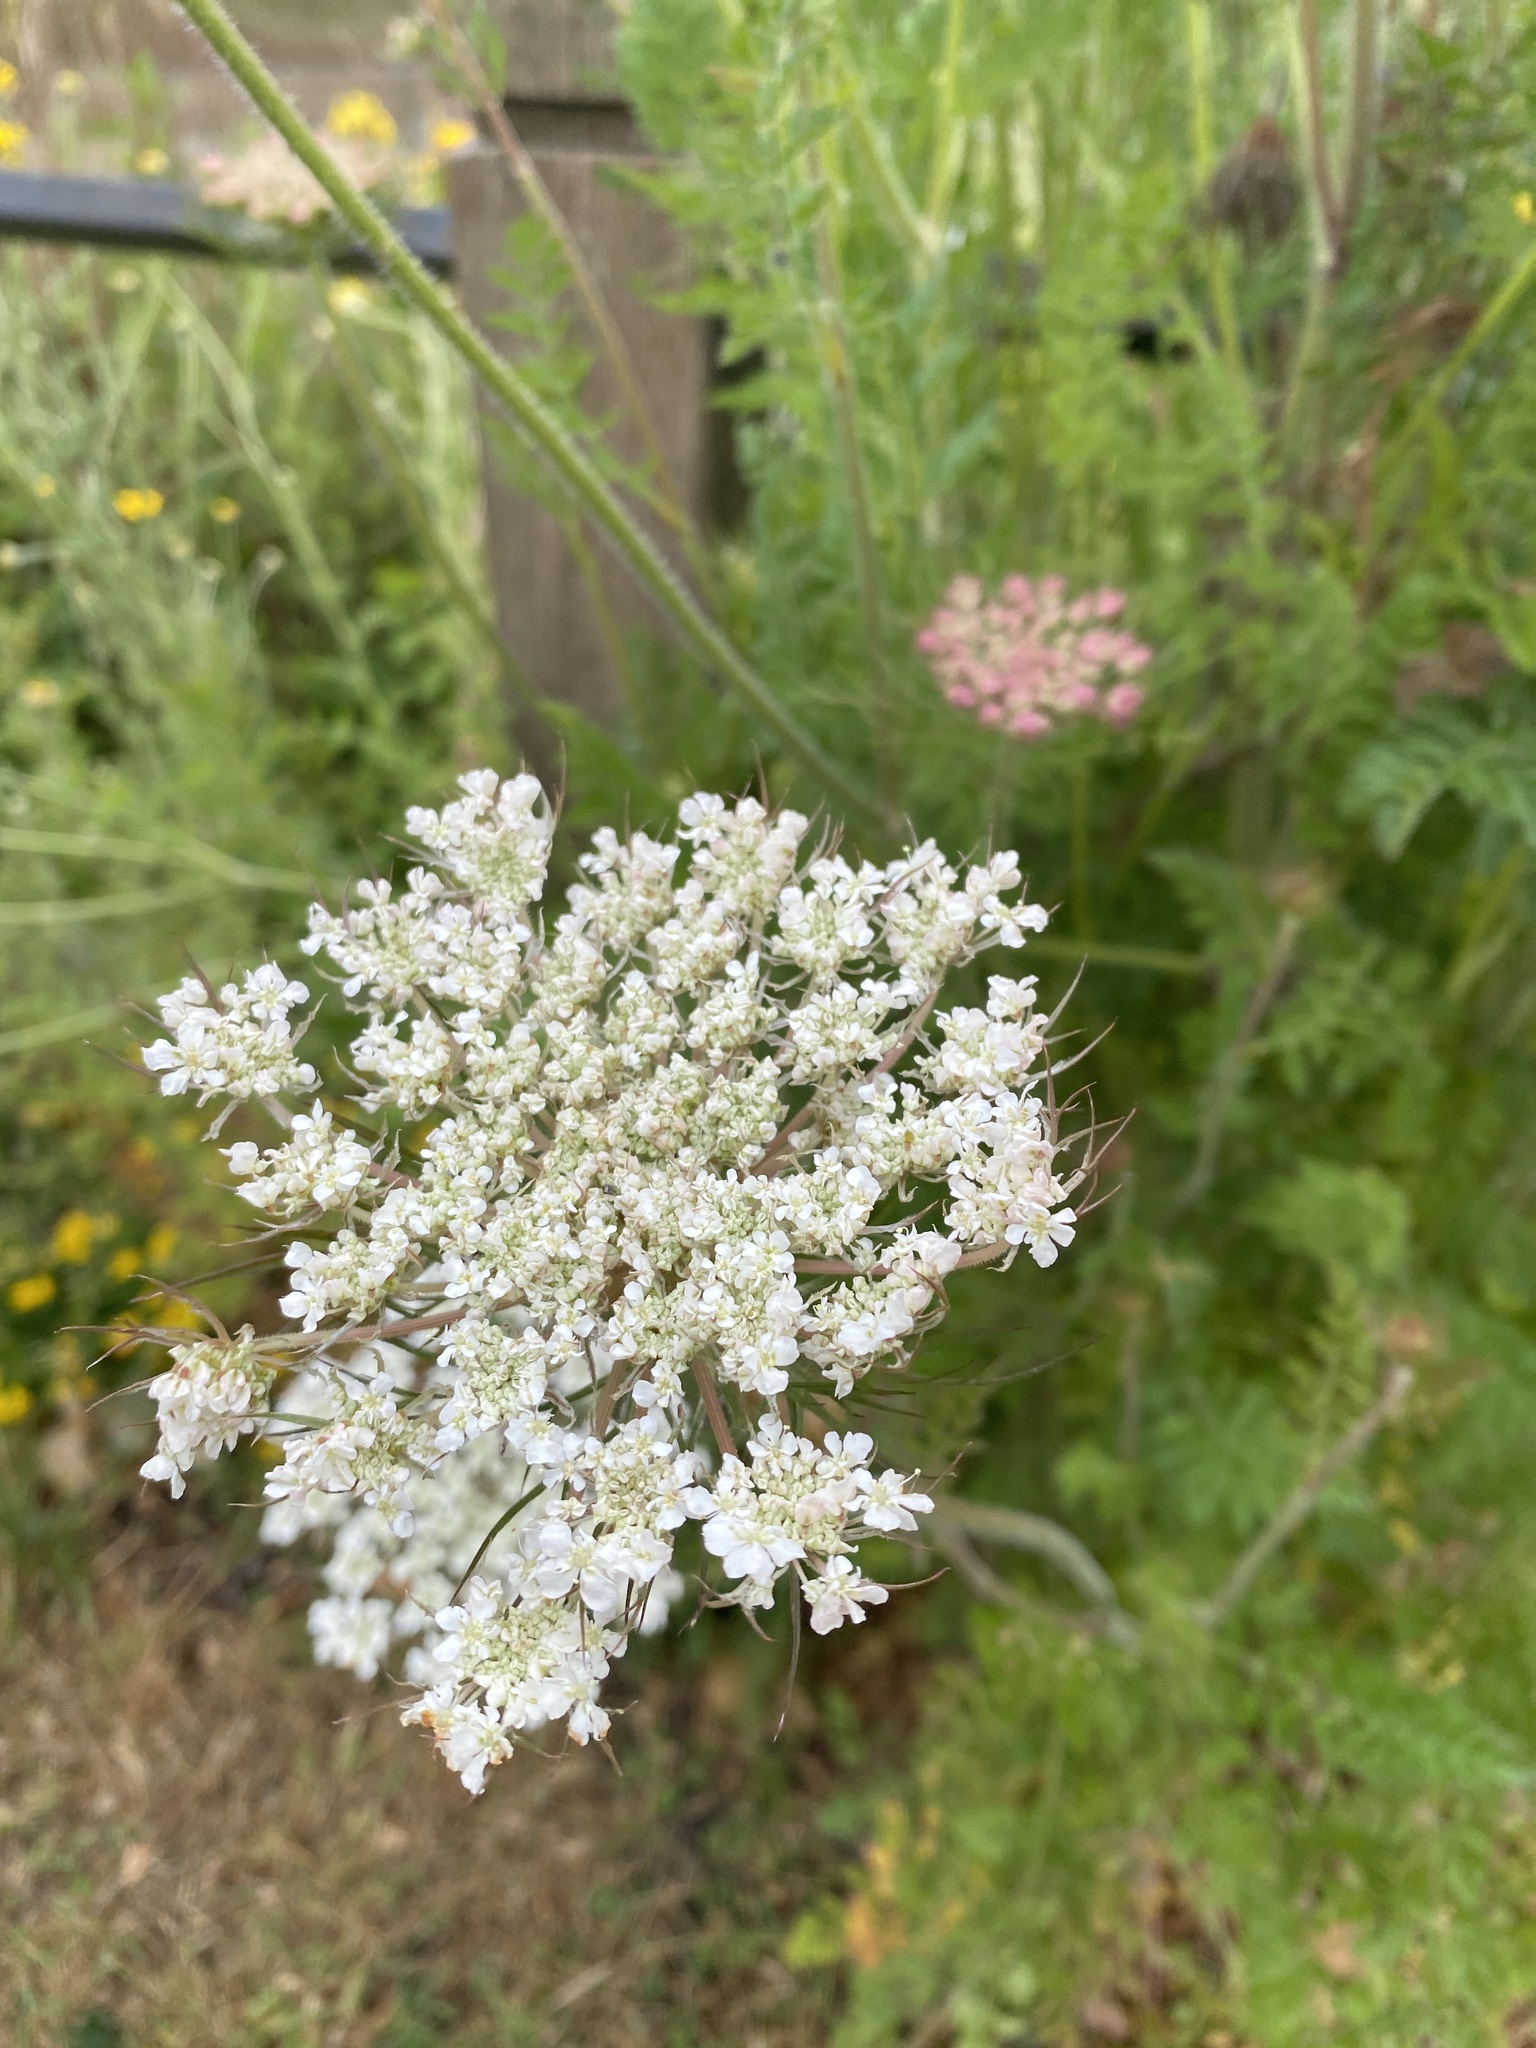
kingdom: Plantae
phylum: Tracheophyta
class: Magnoliopsida
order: Apiales
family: Apiaceae
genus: Daucus
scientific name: Daucus carota
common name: Wild carrot
